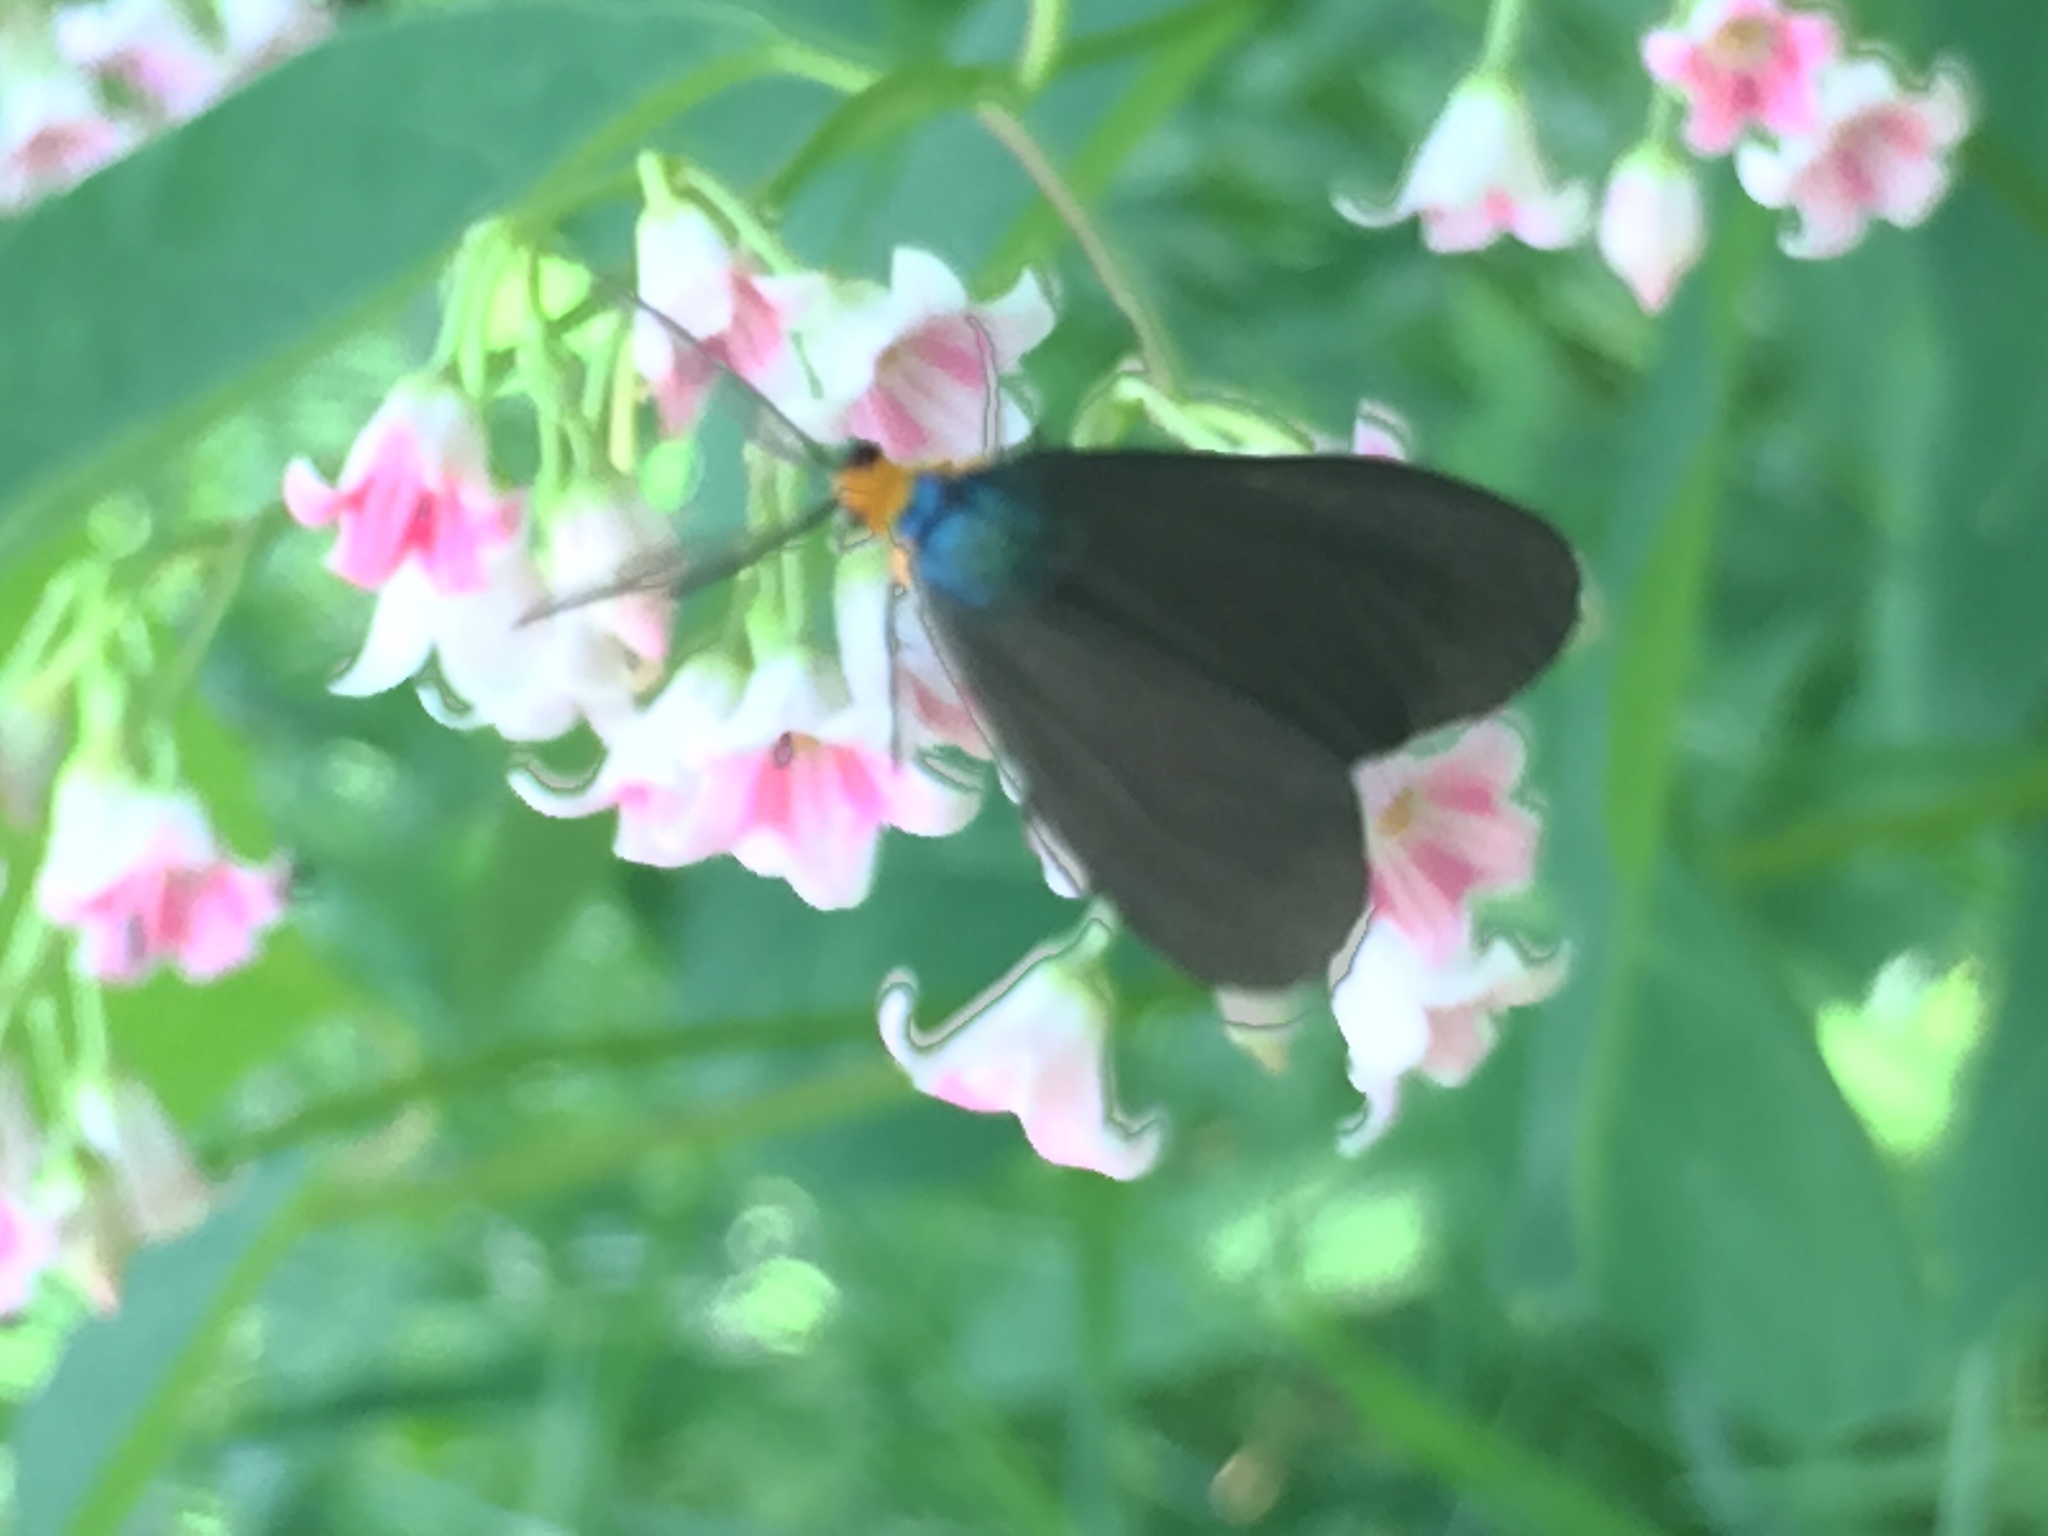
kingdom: Animalia
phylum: Arthropoda
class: Insecta
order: Lepidoptera
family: Erebidae
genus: Ctenucha
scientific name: Ctenucha virginica
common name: Virginia ctenucha moth
